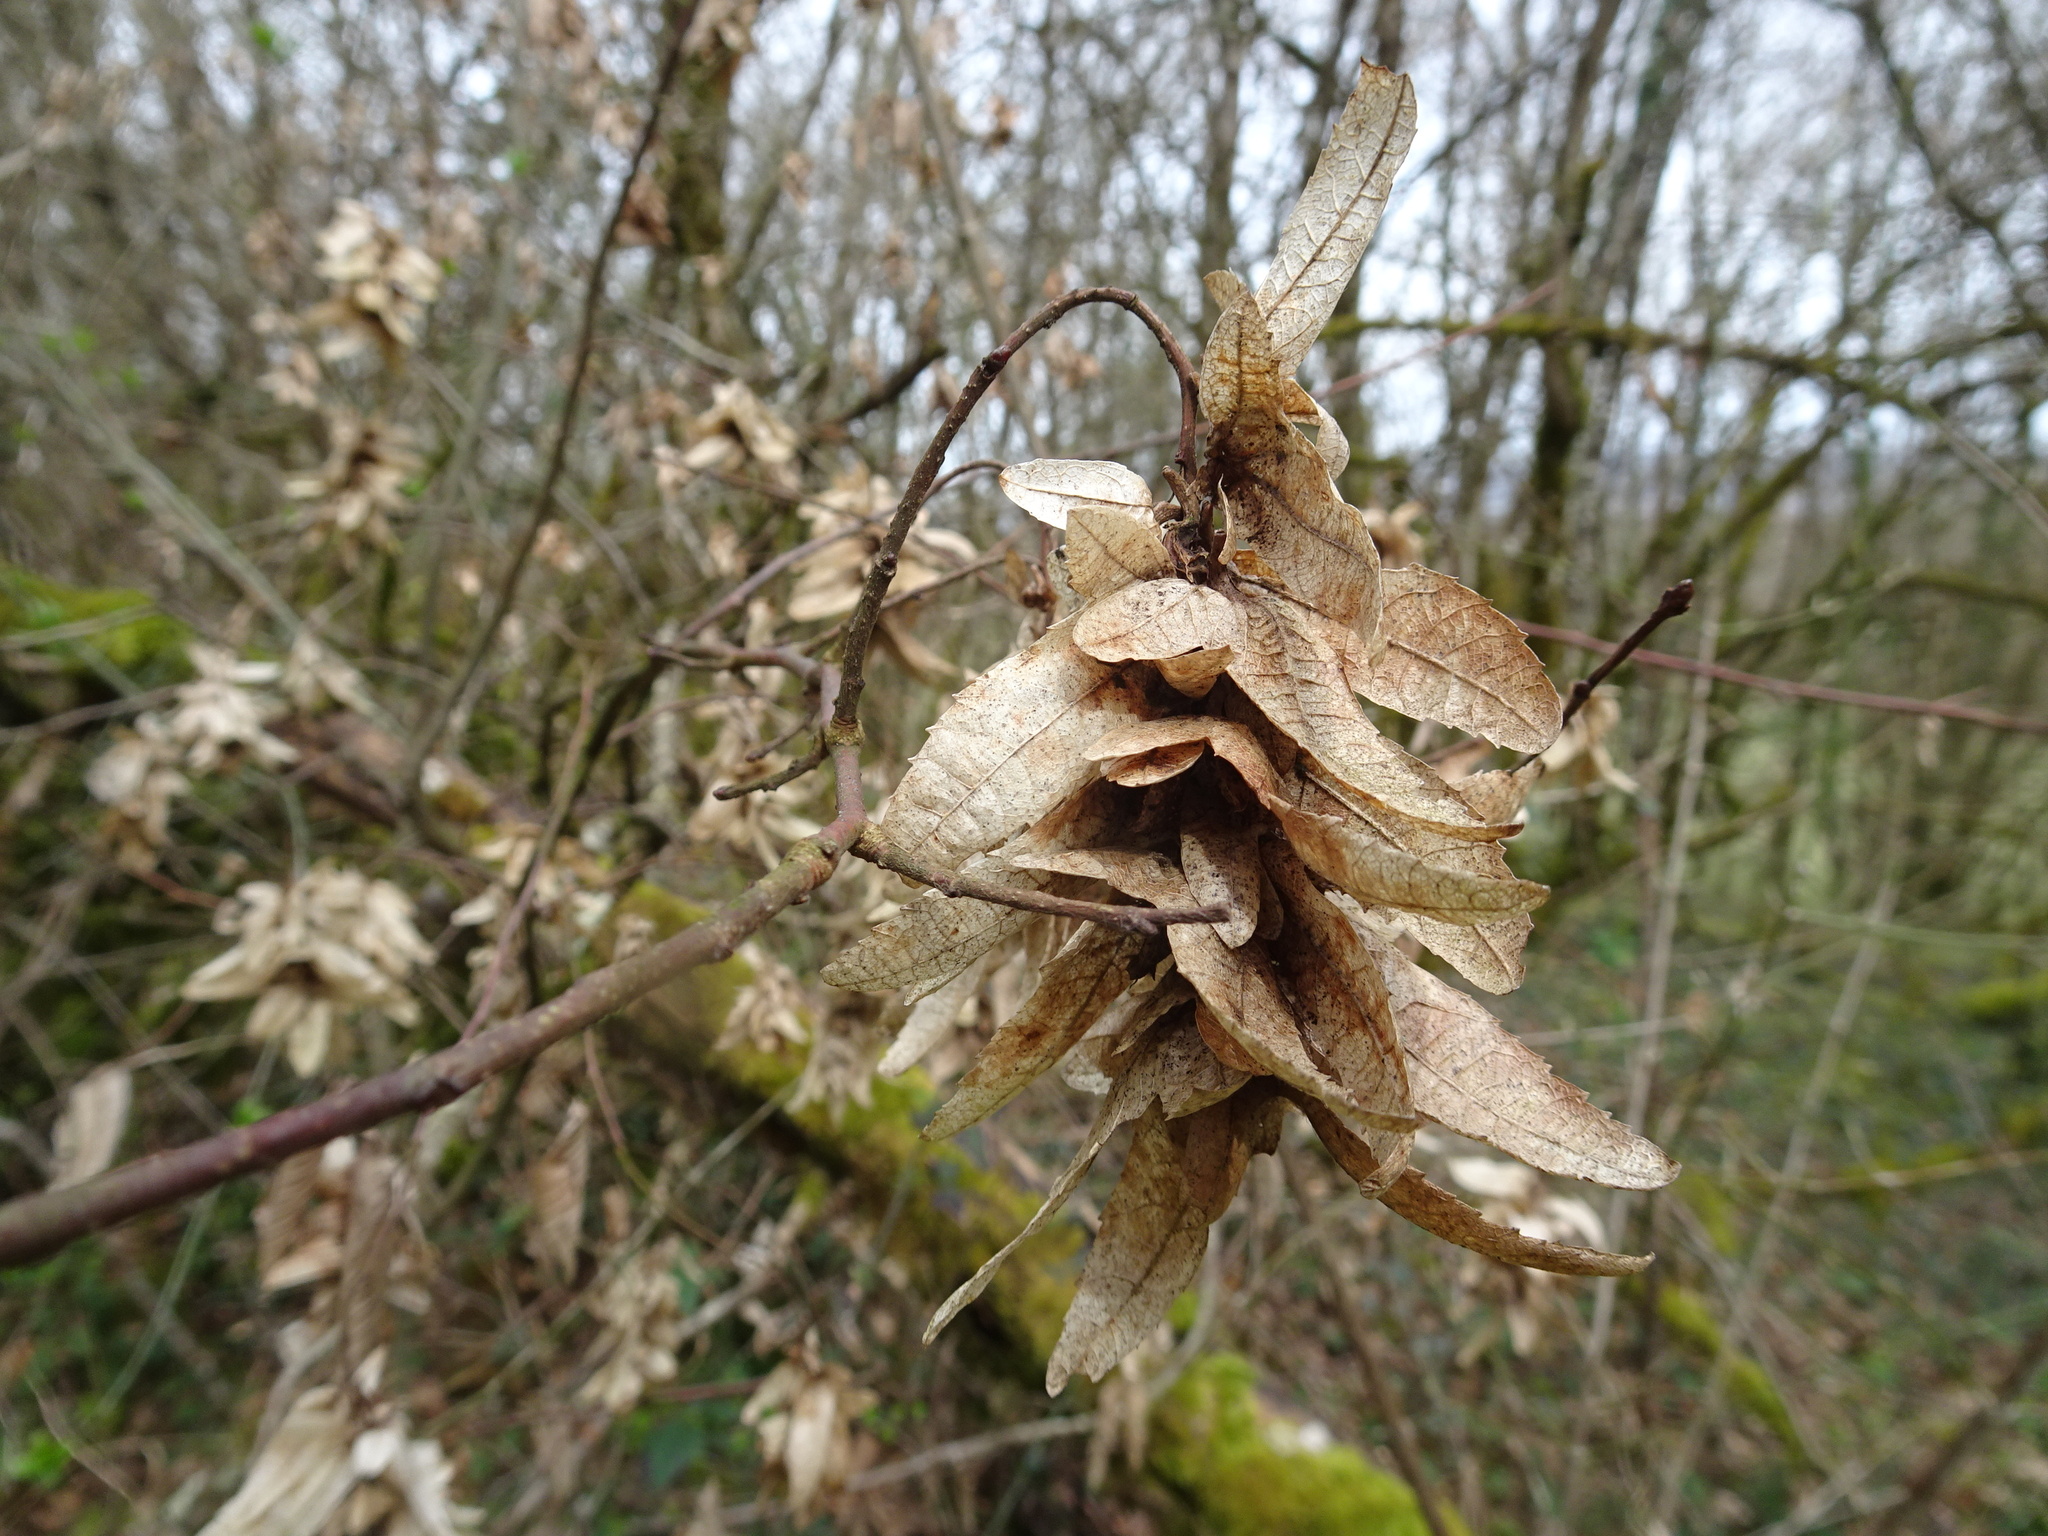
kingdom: Plantae
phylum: Tracheophyta
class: Magnoliopsida
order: Fagales
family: Betulaceae
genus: Carpinus
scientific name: Carpinus betulus
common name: Hornbeam
